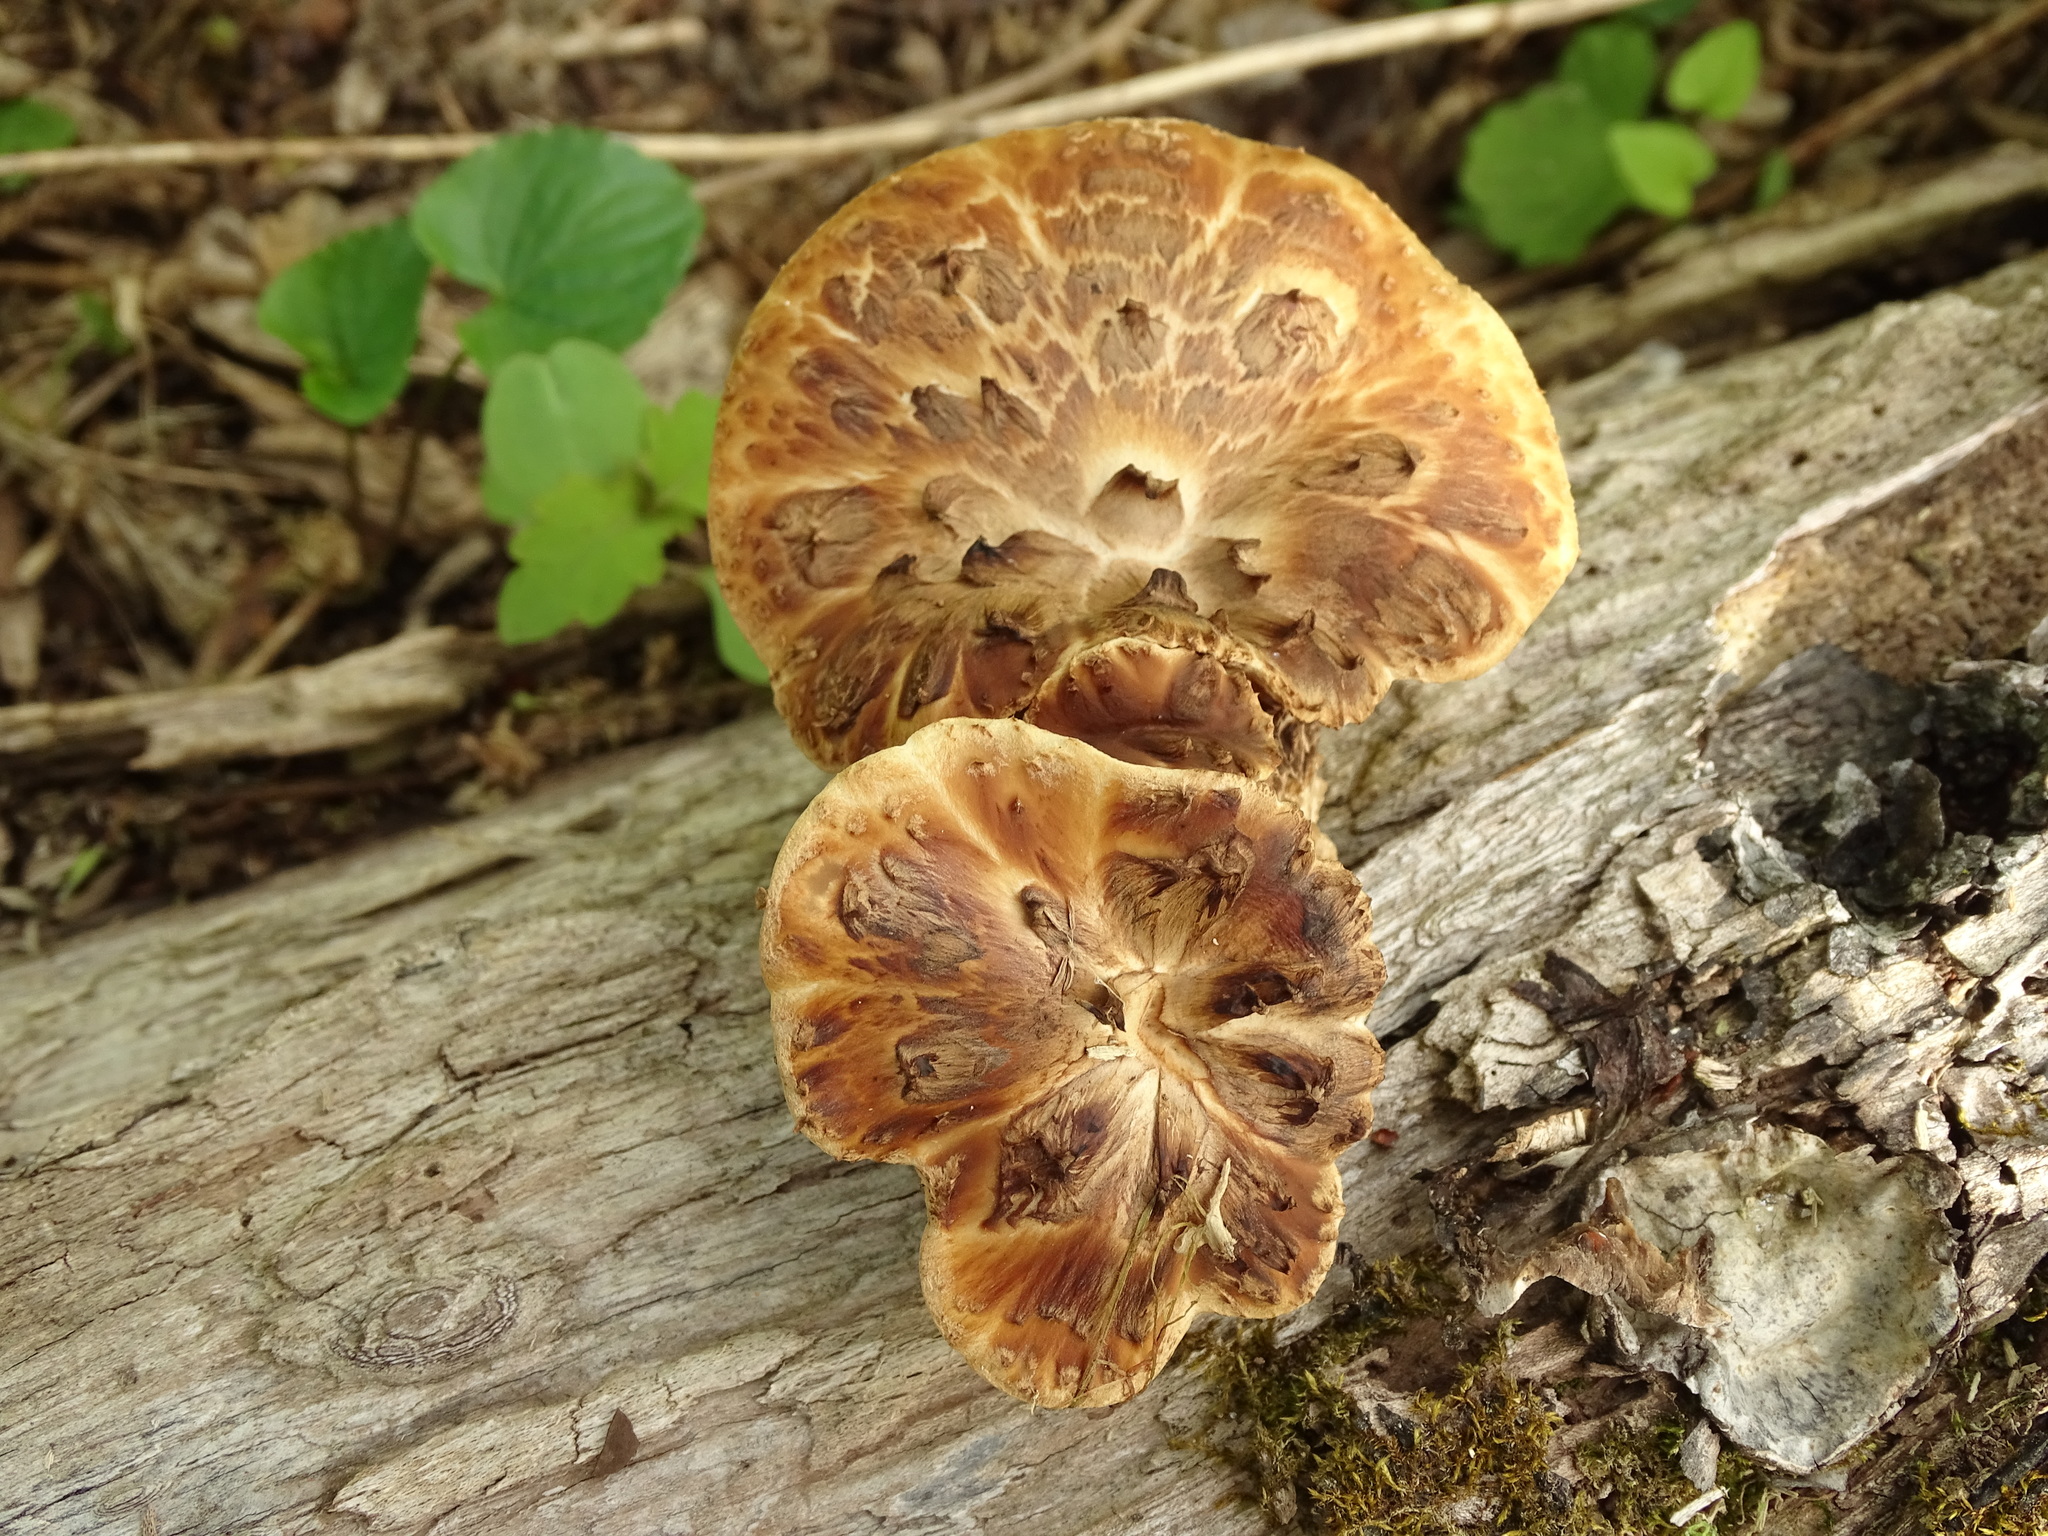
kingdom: Fungi
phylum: Basidiomycota
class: Agaricomycetes
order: Polyporales
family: Polyporaceae
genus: Cerioporus
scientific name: Cerioporus squamosus
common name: Dryad's saddle
